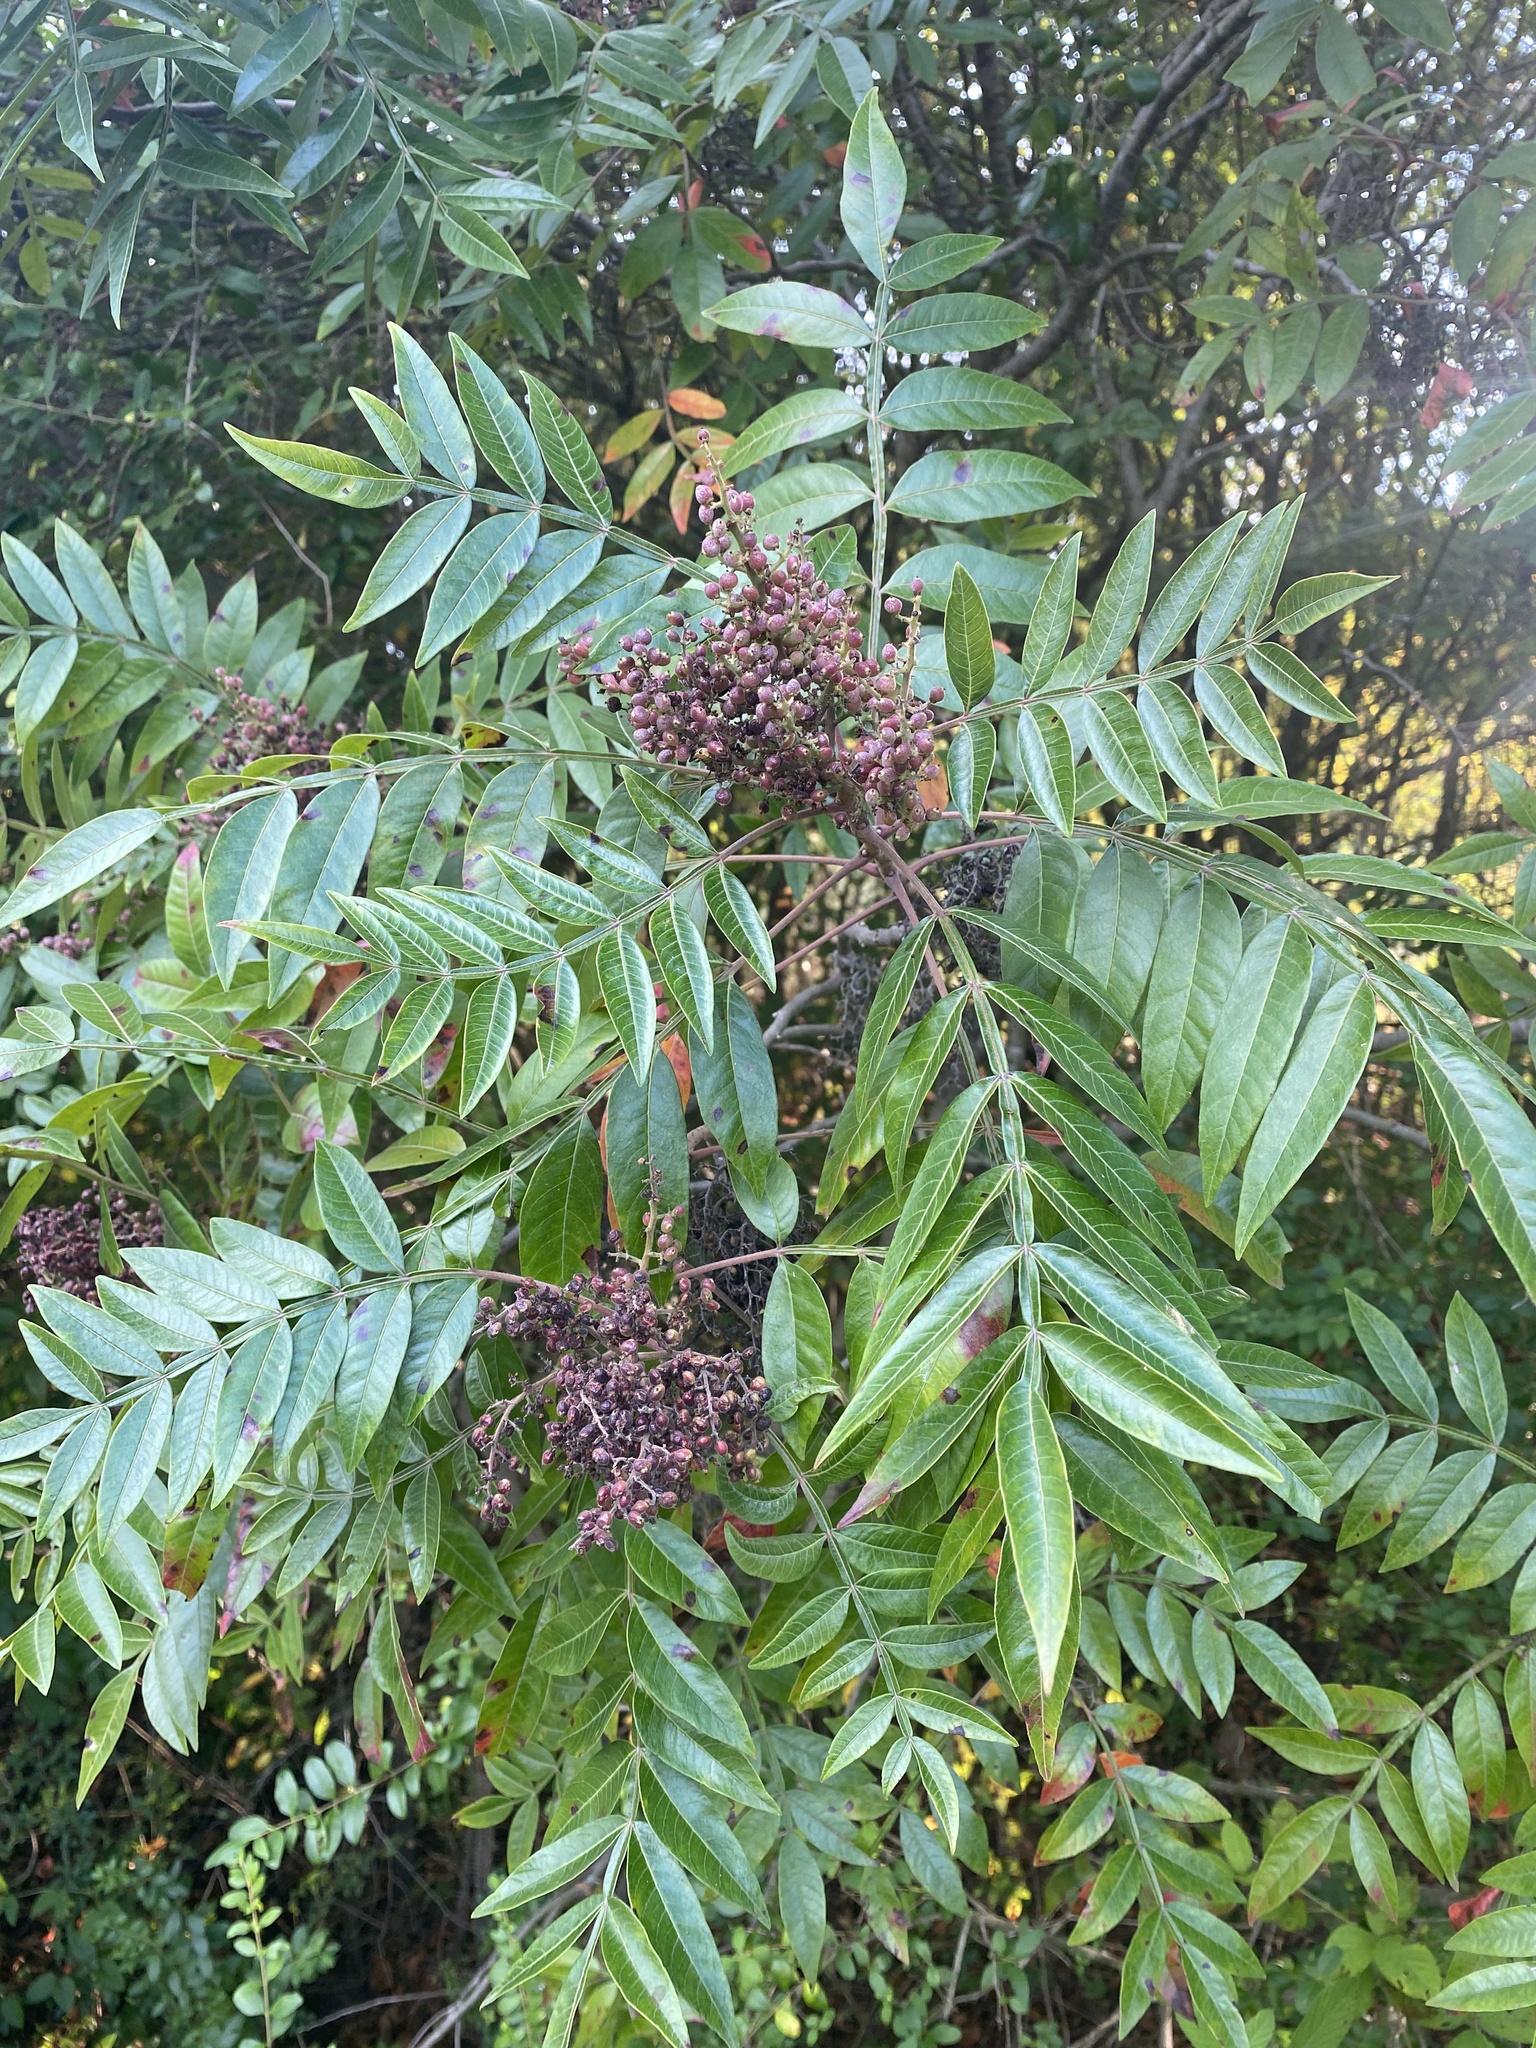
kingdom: Plantae
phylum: Tracheophyta
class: Magnoliopsida
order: Sapindales
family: Anacardiaceae
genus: Rhus
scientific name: Rhus copallina
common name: Shining sumac
